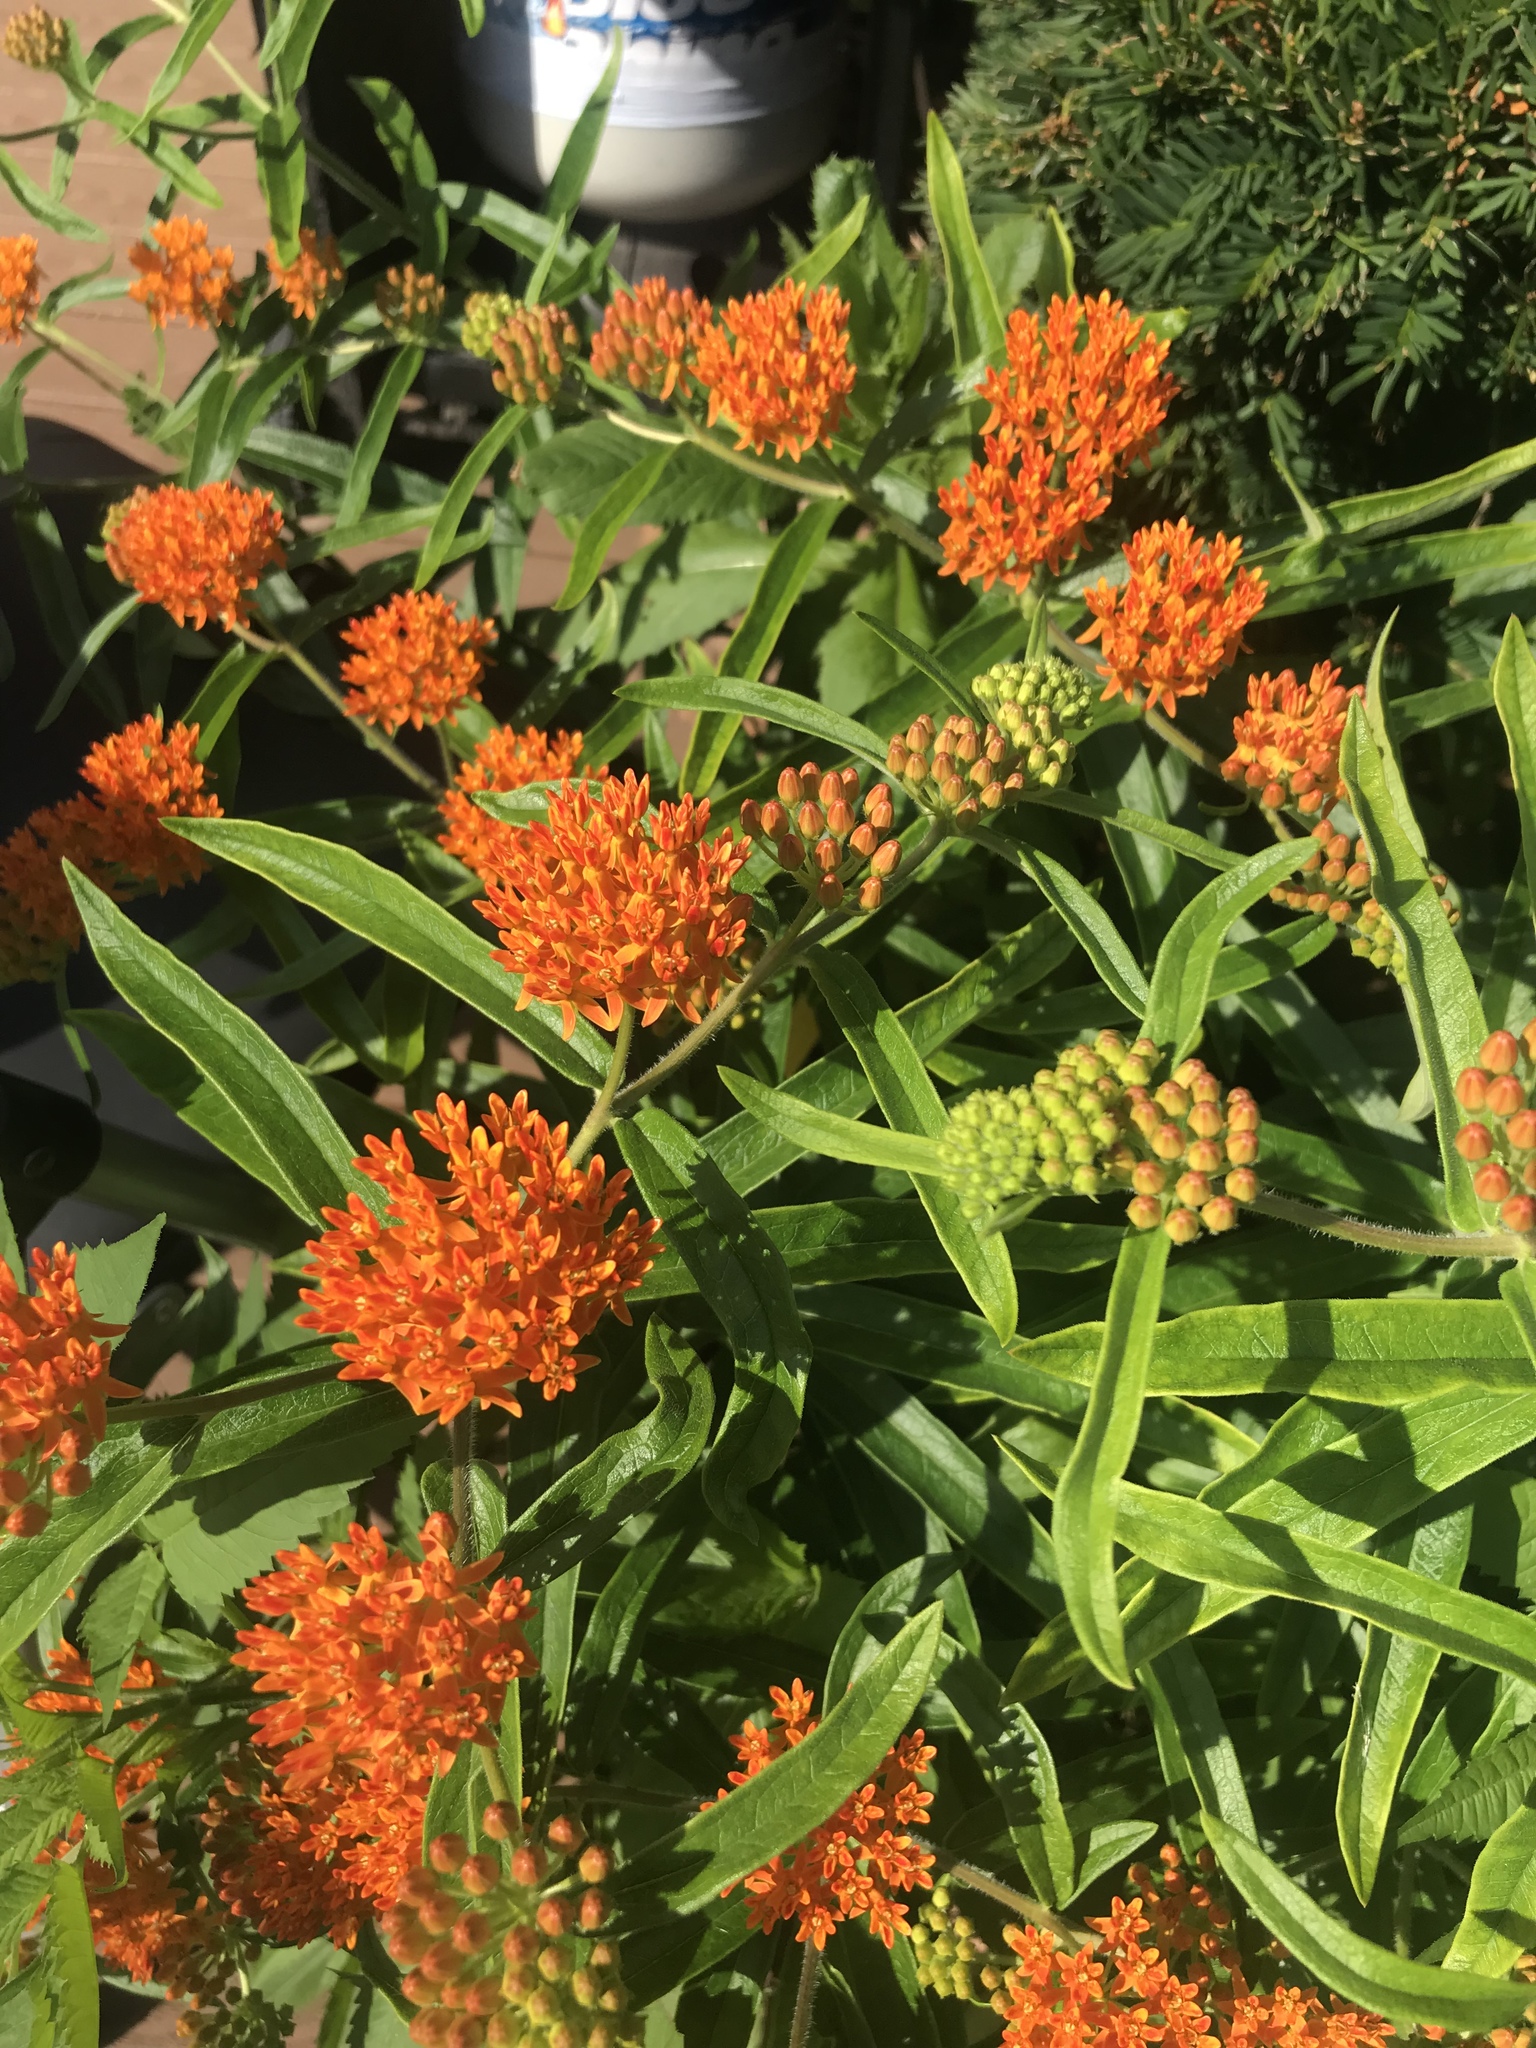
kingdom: Plantae
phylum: Tracheophyta
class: Magnoliopsida
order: Gentianales
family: Apocynaceae
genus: Asclepias
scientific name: Asclepias tuberosa
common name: Butterfly milkweed
